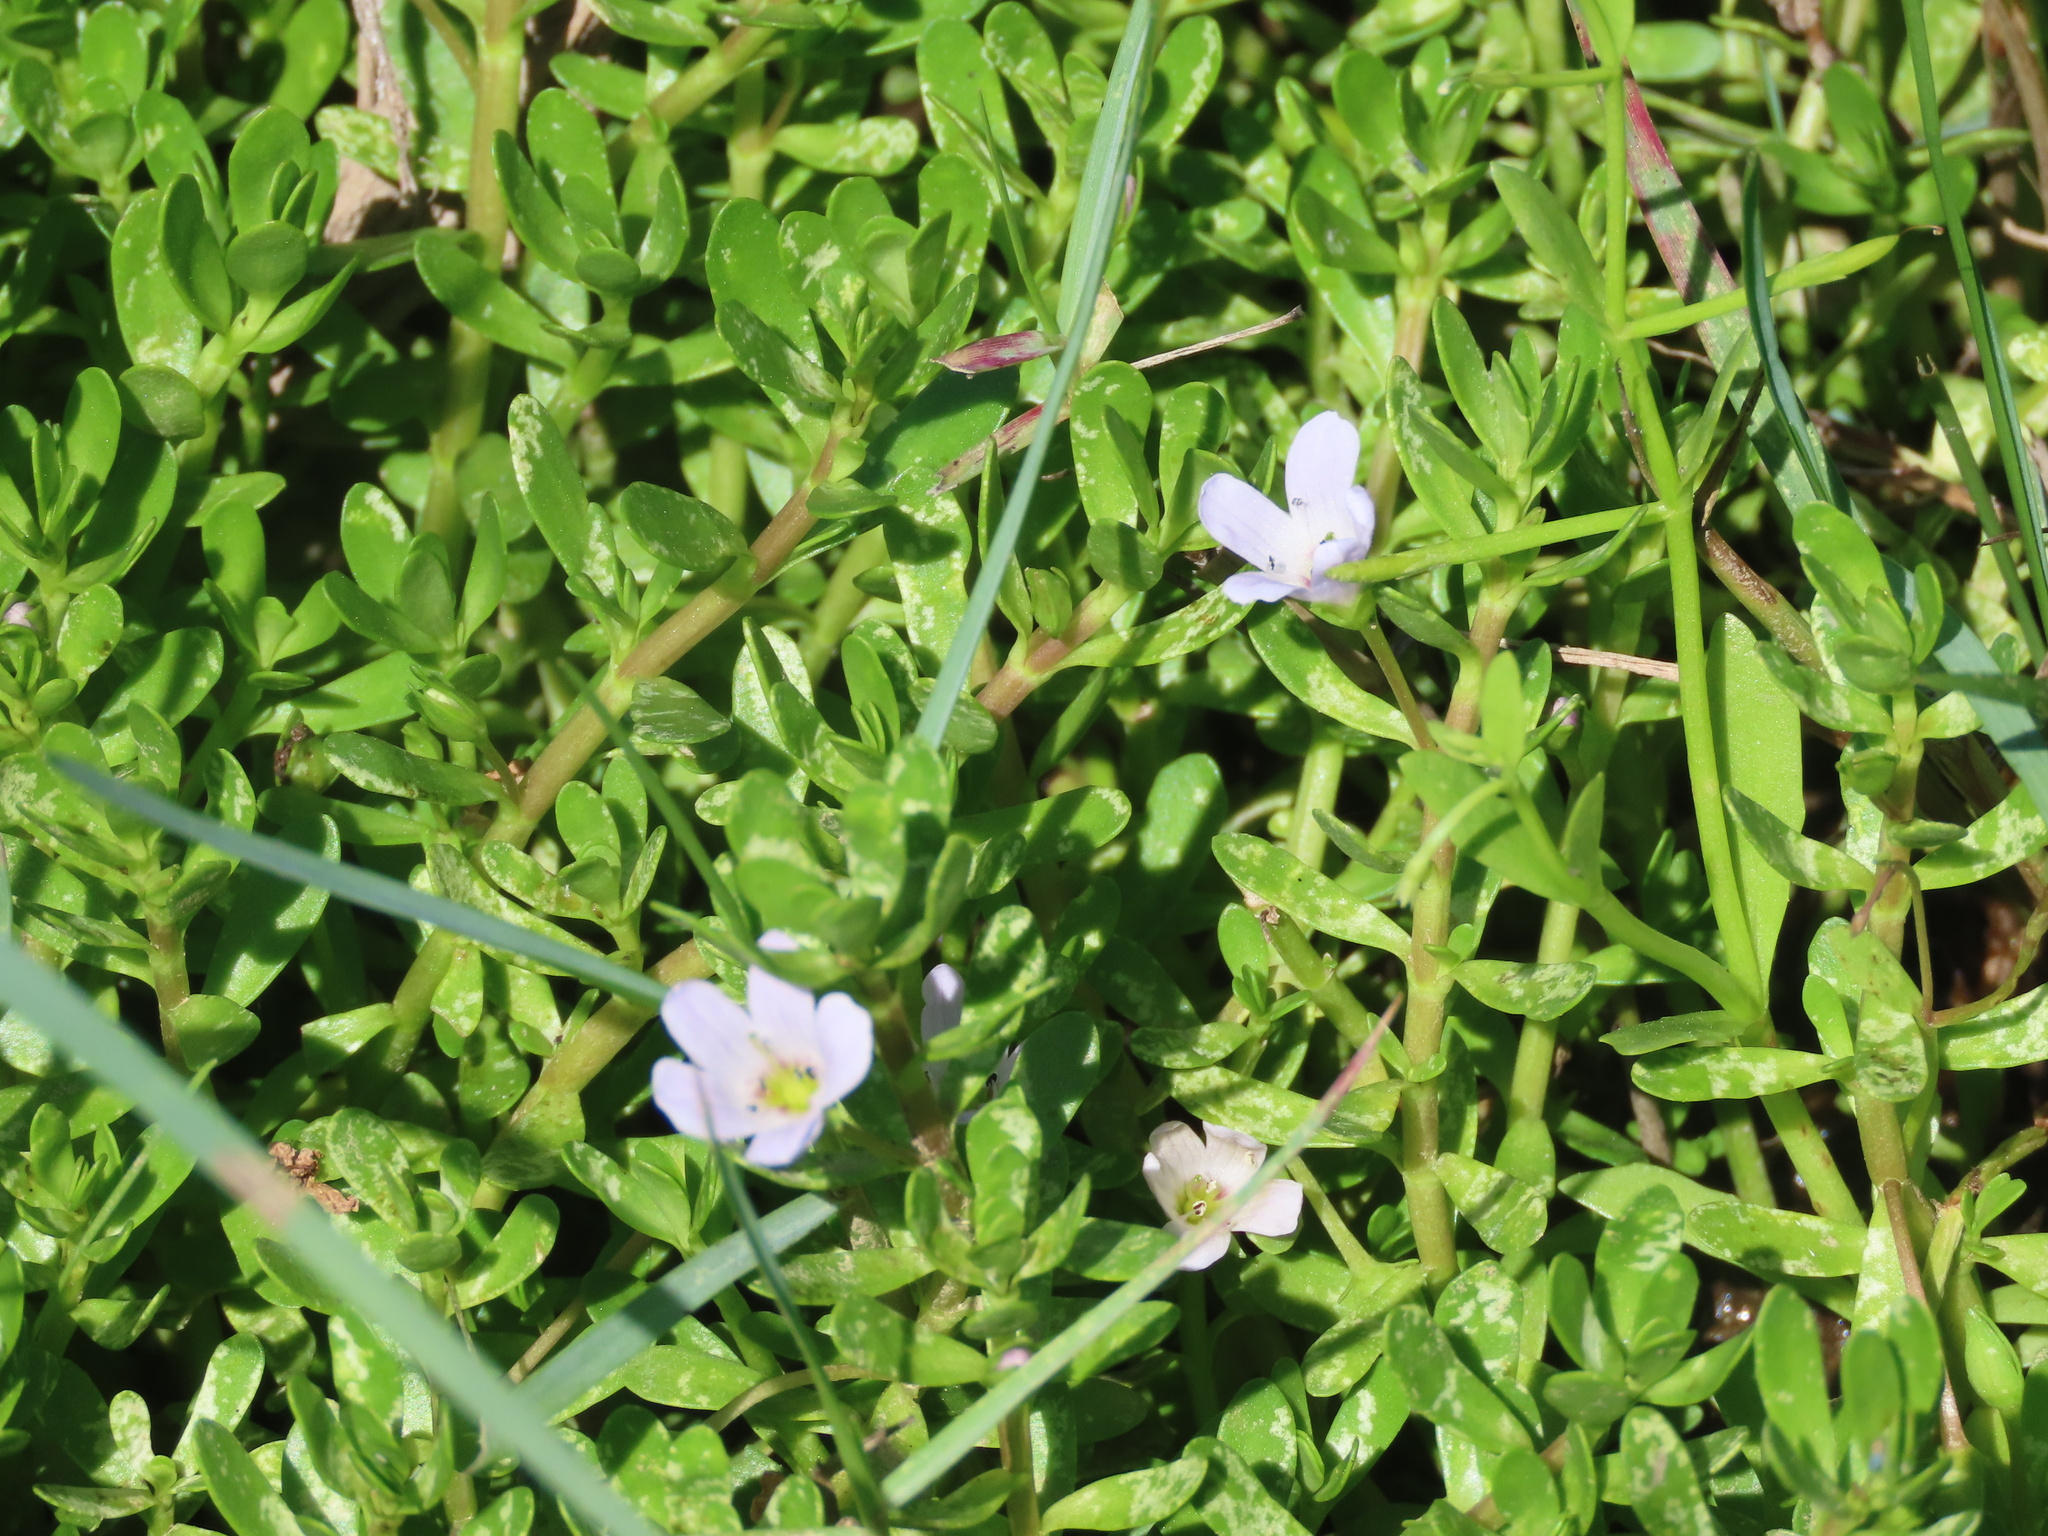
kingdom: Plantae
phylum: Tracheophyta
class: Magnoliopsida
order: Lamiales
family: Plantaginaceae
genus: Bacopa
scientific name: Bacopa monnieri
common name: Indian-pennywort
